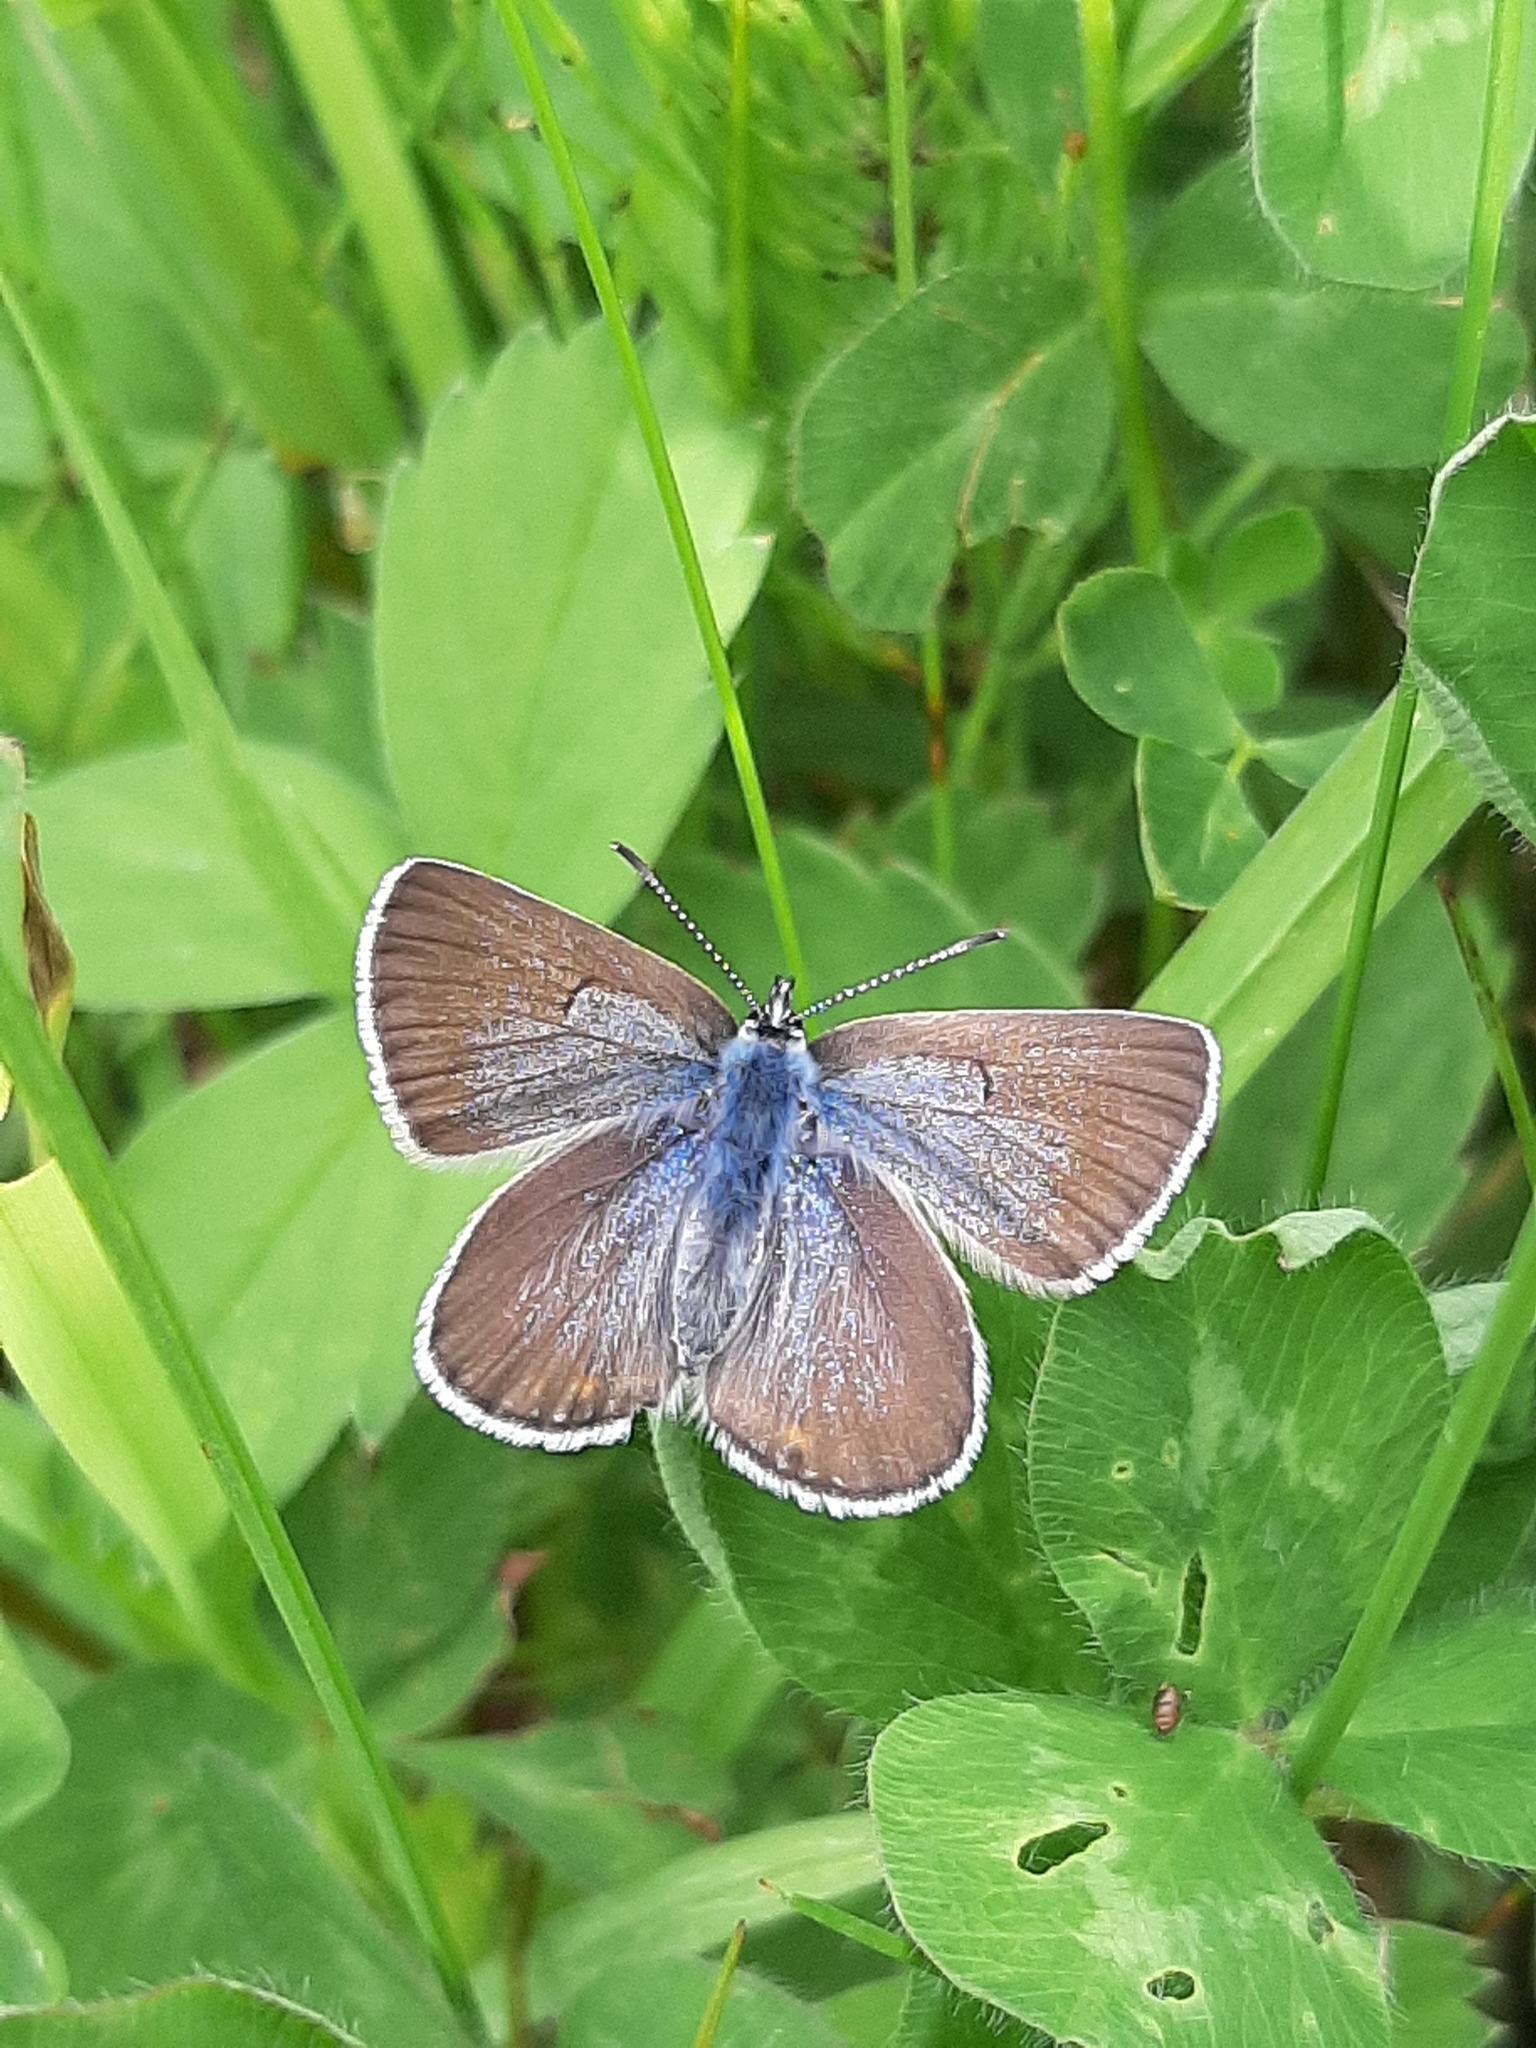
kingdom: Animalia
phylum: Arthropoda
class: Insecta
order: Lepidoptera
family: Lycaenidae
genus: Icaricia
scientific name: Icaricia saepiolus
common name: Greenish blue
